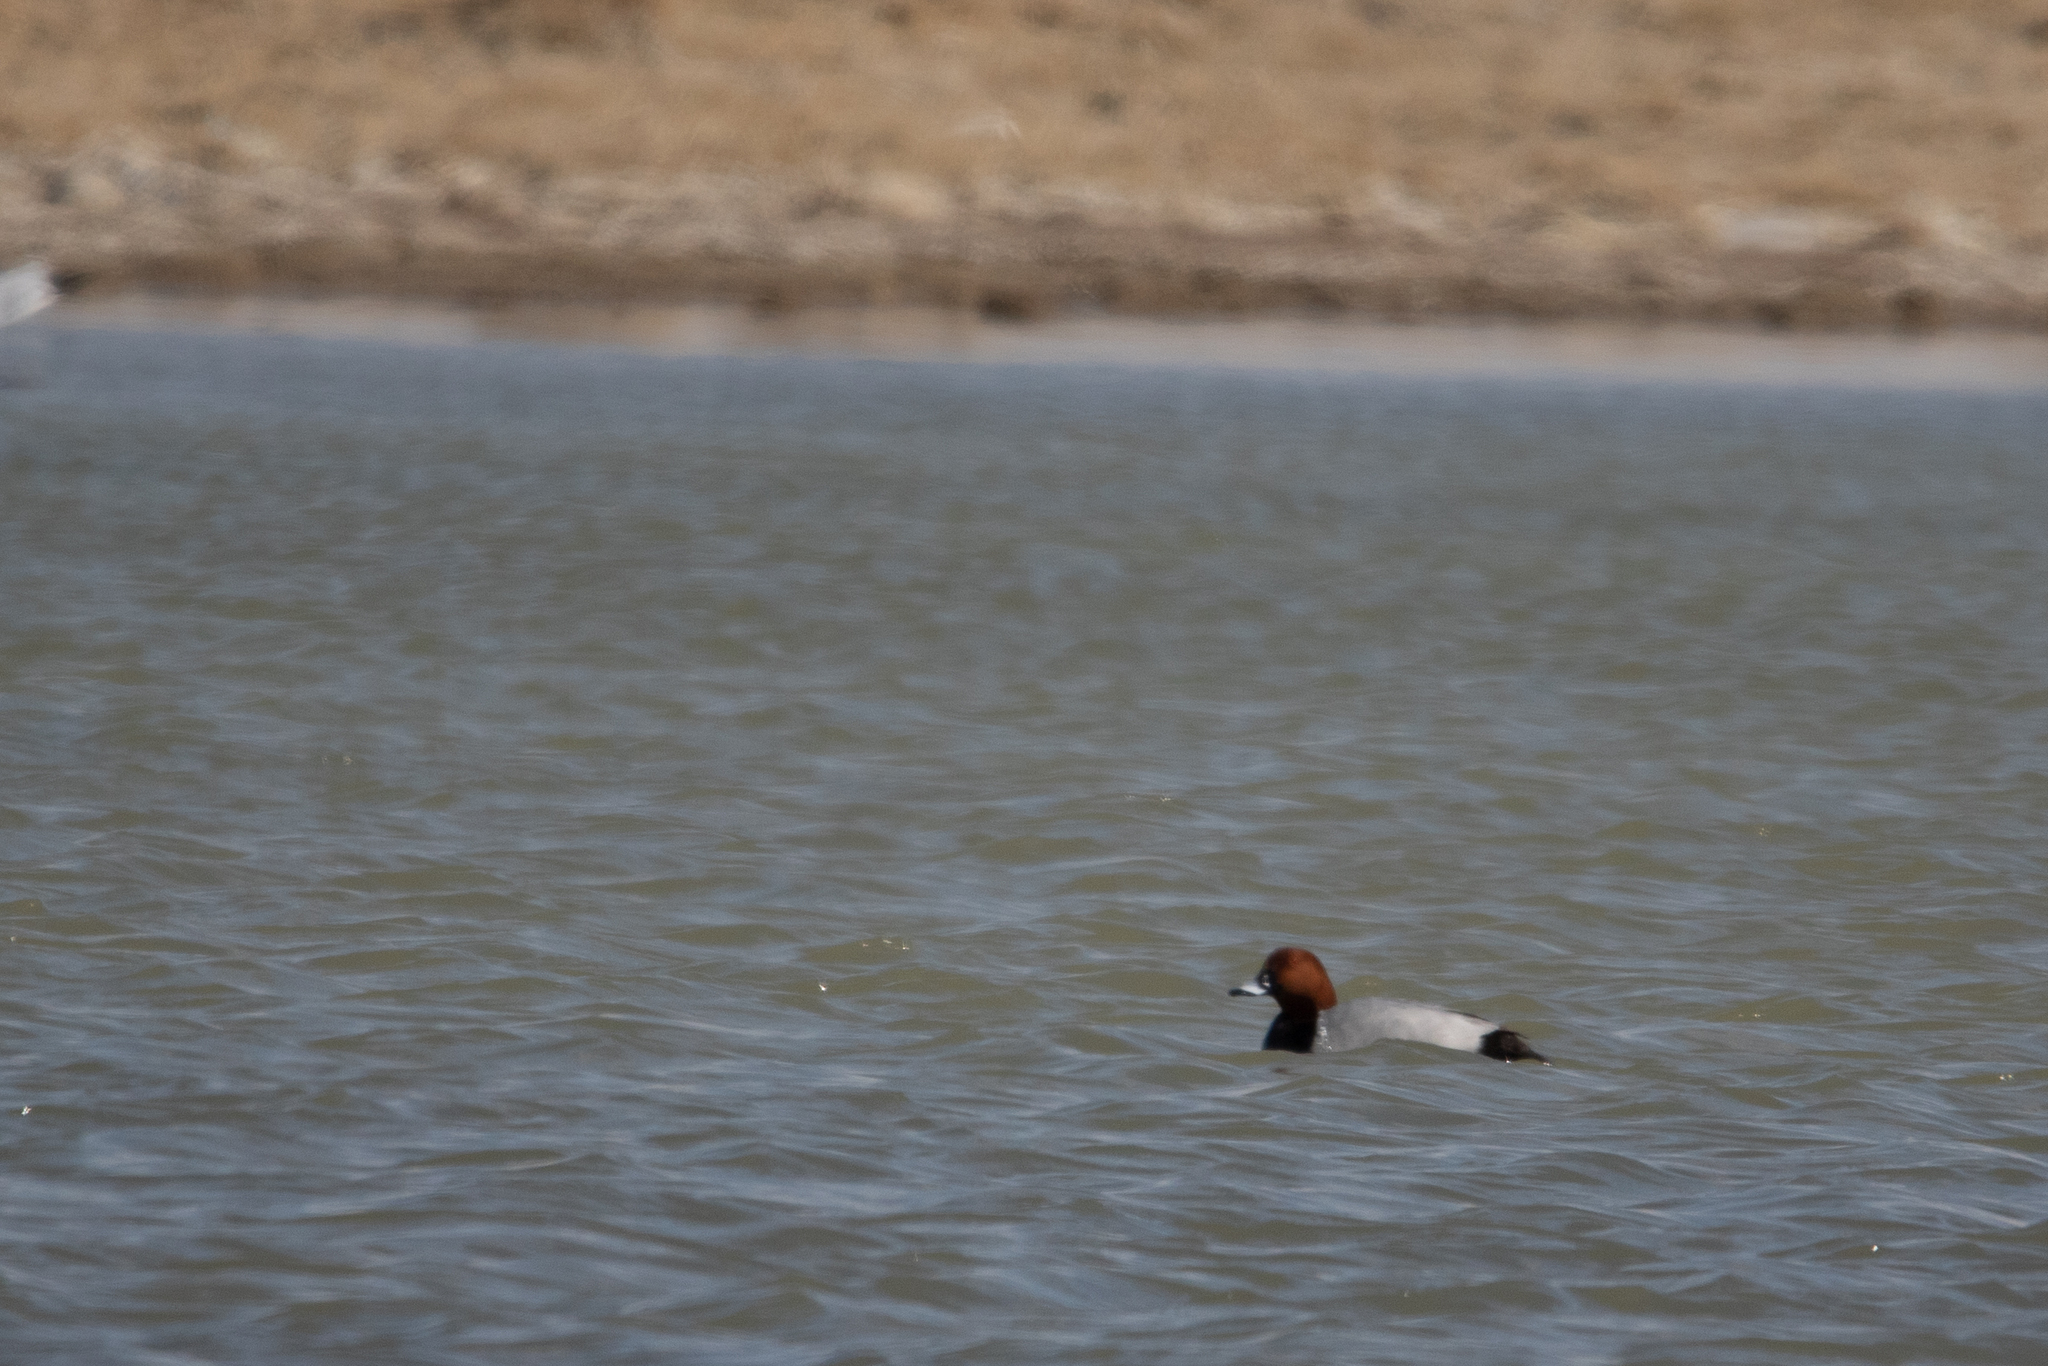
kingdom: Animalia
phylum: Chordata
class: Aves
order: Anseriformes
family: Anatidae
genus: Aythya
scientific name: Aythya ferina
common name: Common pochard
